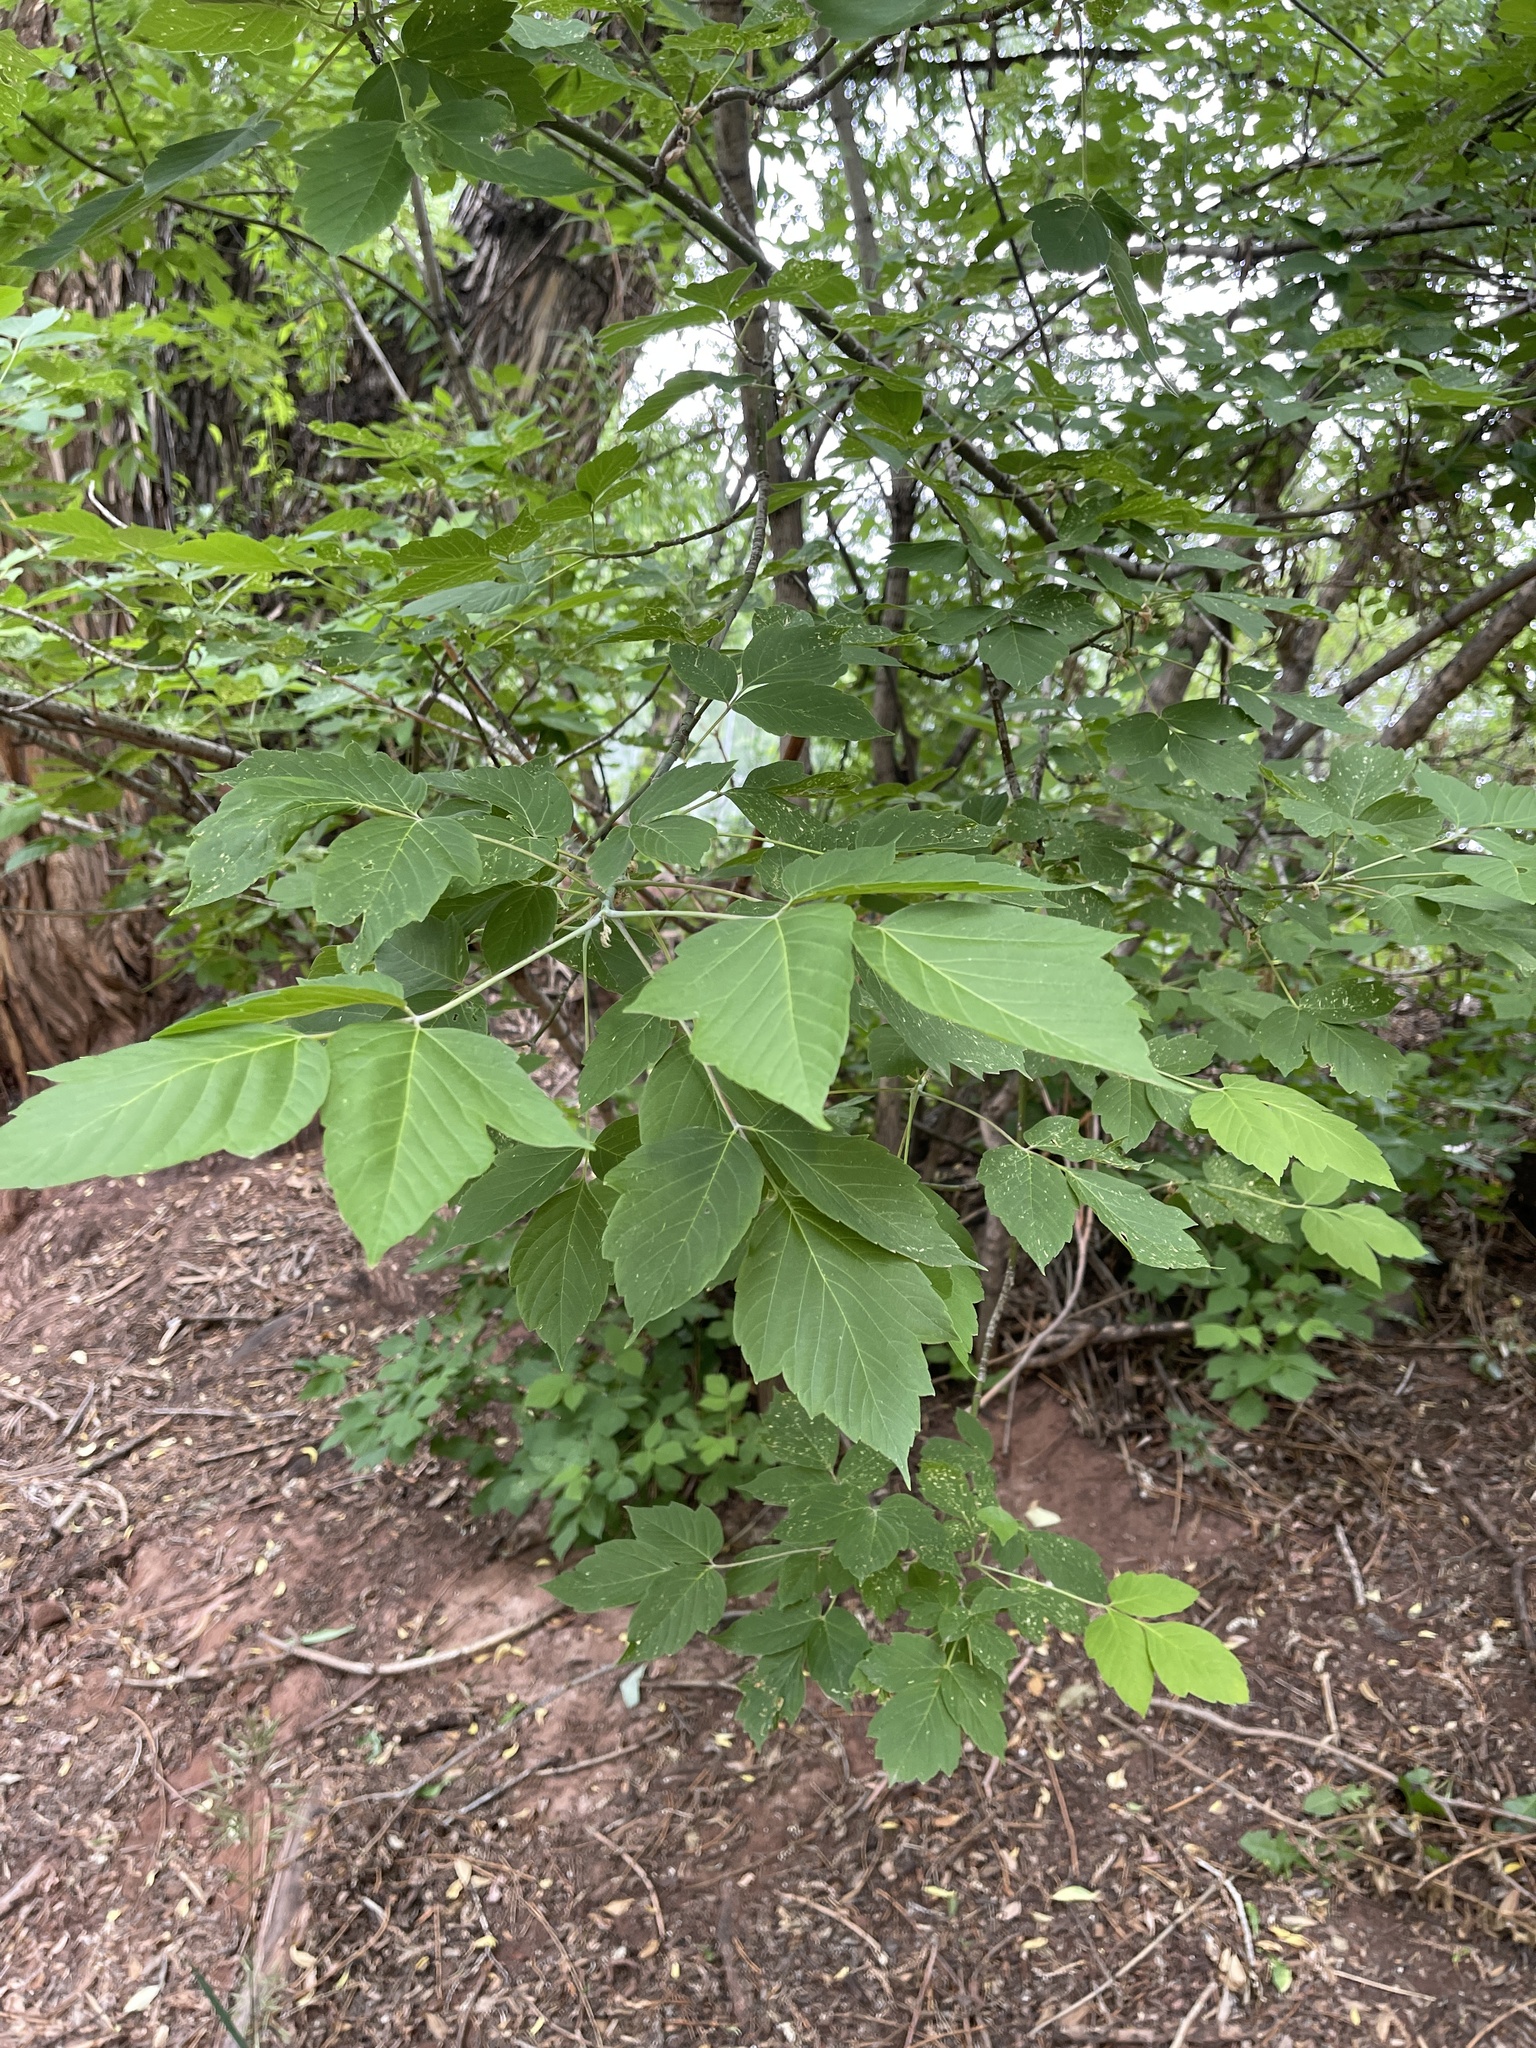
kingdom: Plantae
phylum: Tracheophyta
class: Magnoliopsida
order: Sapindales
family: Sapindaceae
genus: Acer
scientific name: Acer negundo
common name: Ashleaf maple
